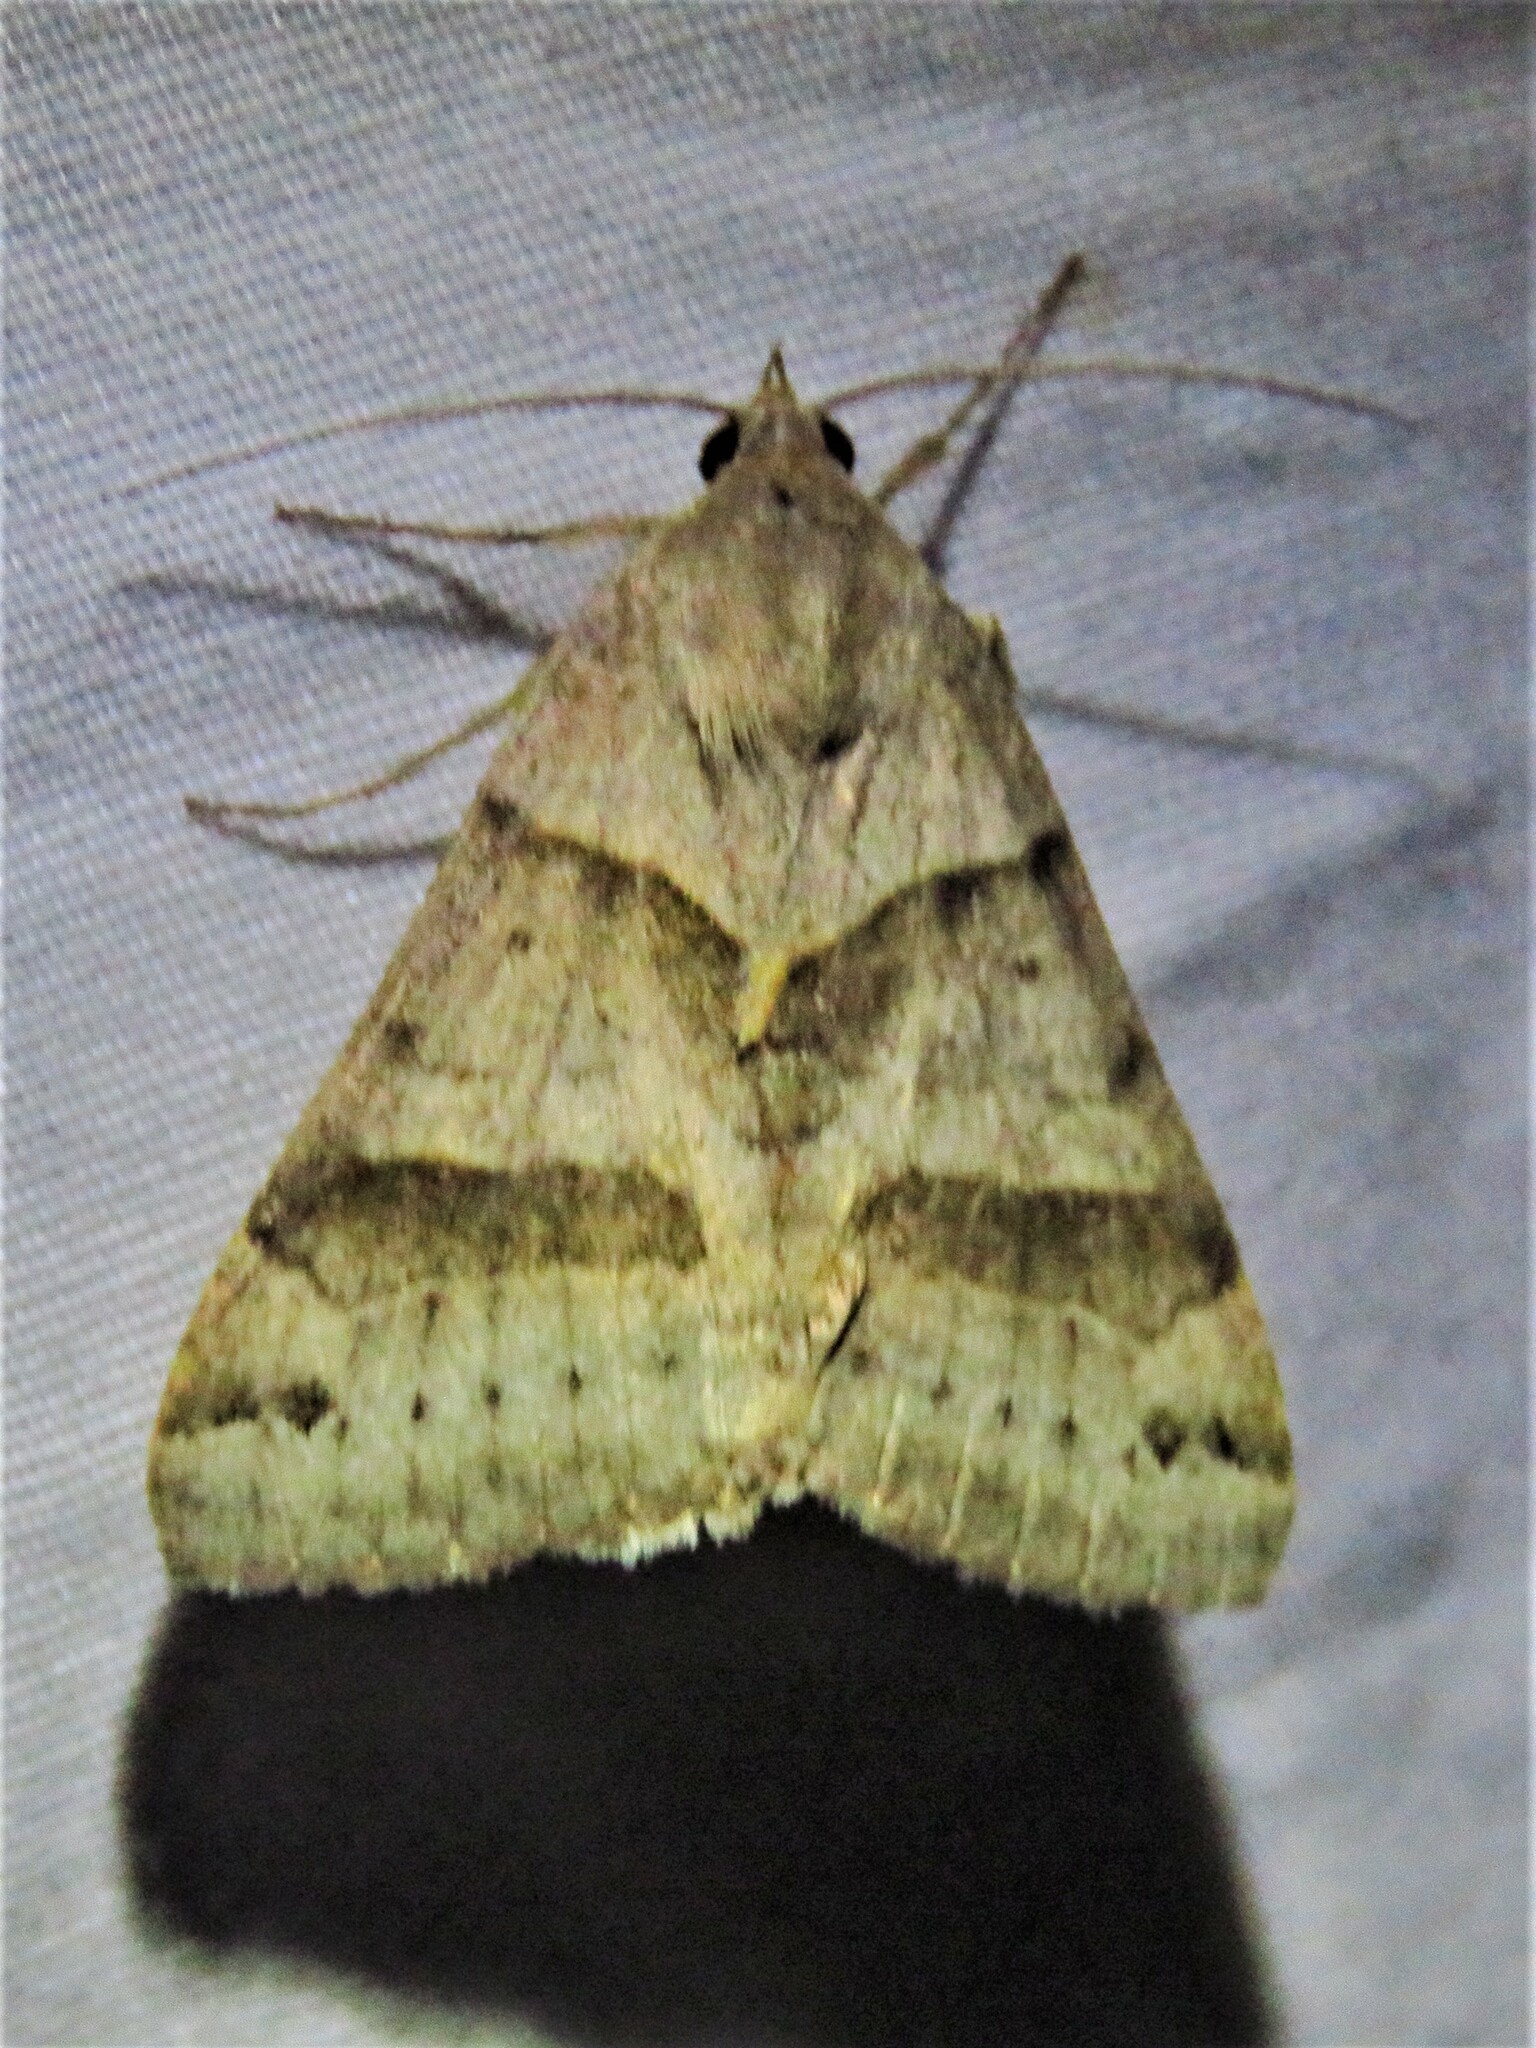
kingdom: Animalia
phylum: Arthropoda
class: Insecta
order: Lepidoptera
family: Erebidae
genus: Caenurgina
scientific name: Caenurgina erechtea
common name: Forage looper moth
